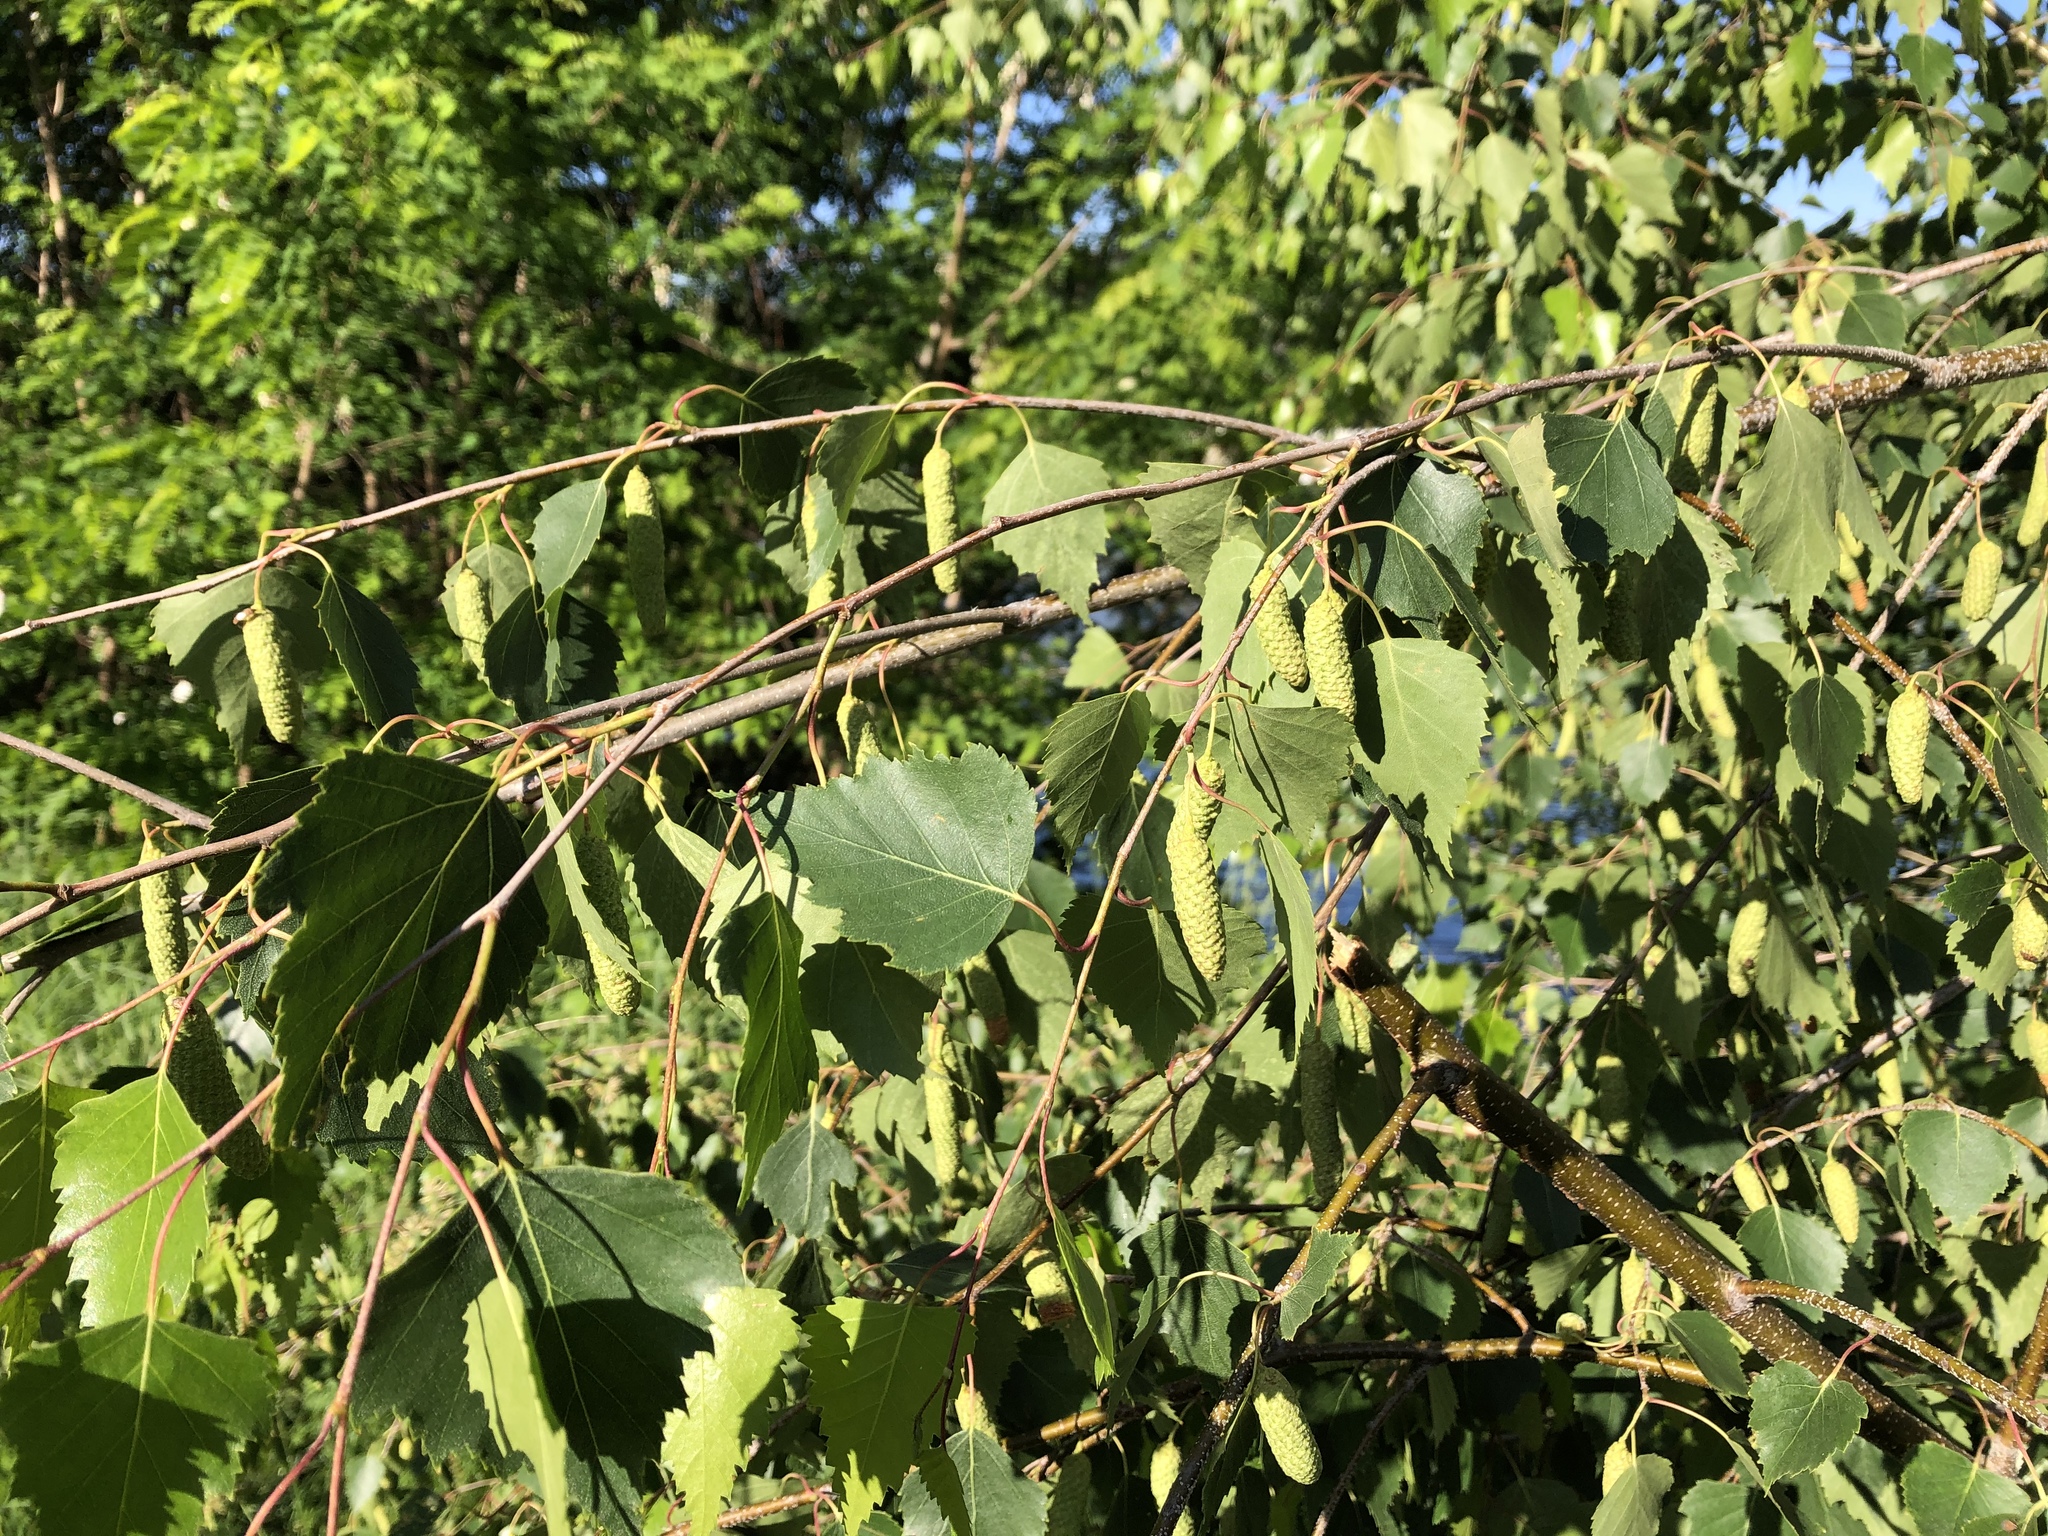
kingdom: Plantae
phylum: Tracheophyta
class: Magnoliopsida
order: Fagales
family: Betulaceae
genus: Betula
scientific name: Betula pendula
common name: Silver birch
